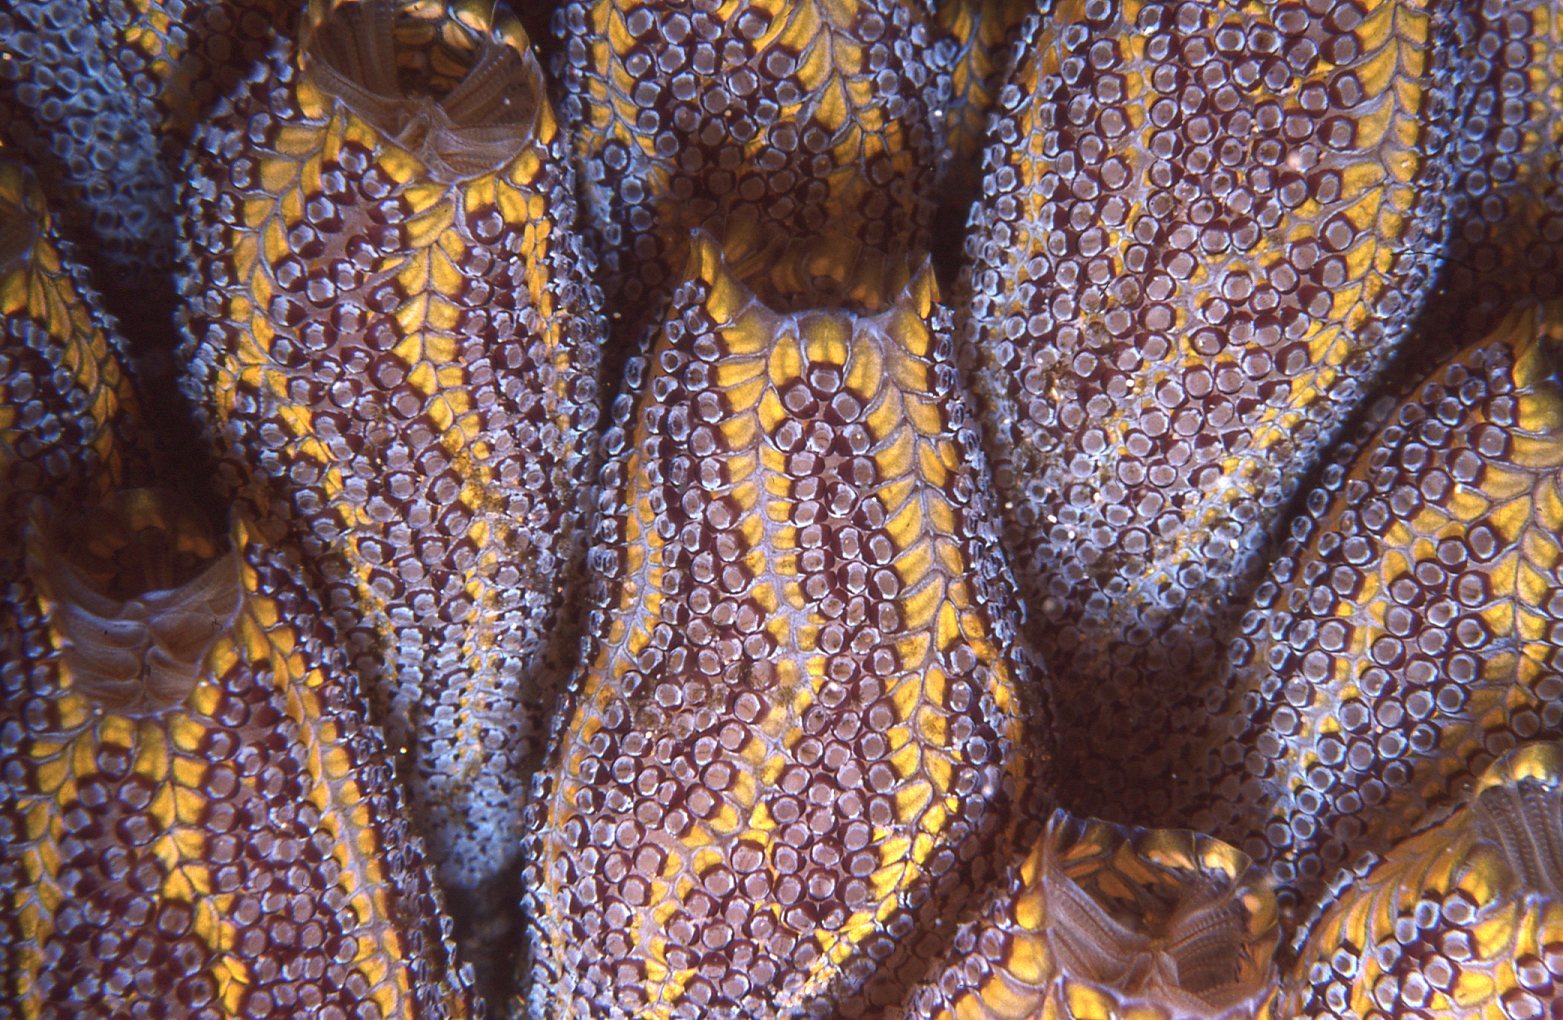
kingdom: Animalia
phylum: Chordata
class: Ascidiacea
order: Stolidobranchia
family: Styelidae
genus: Botrylloides
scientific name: Botrylloides magnicoecus
